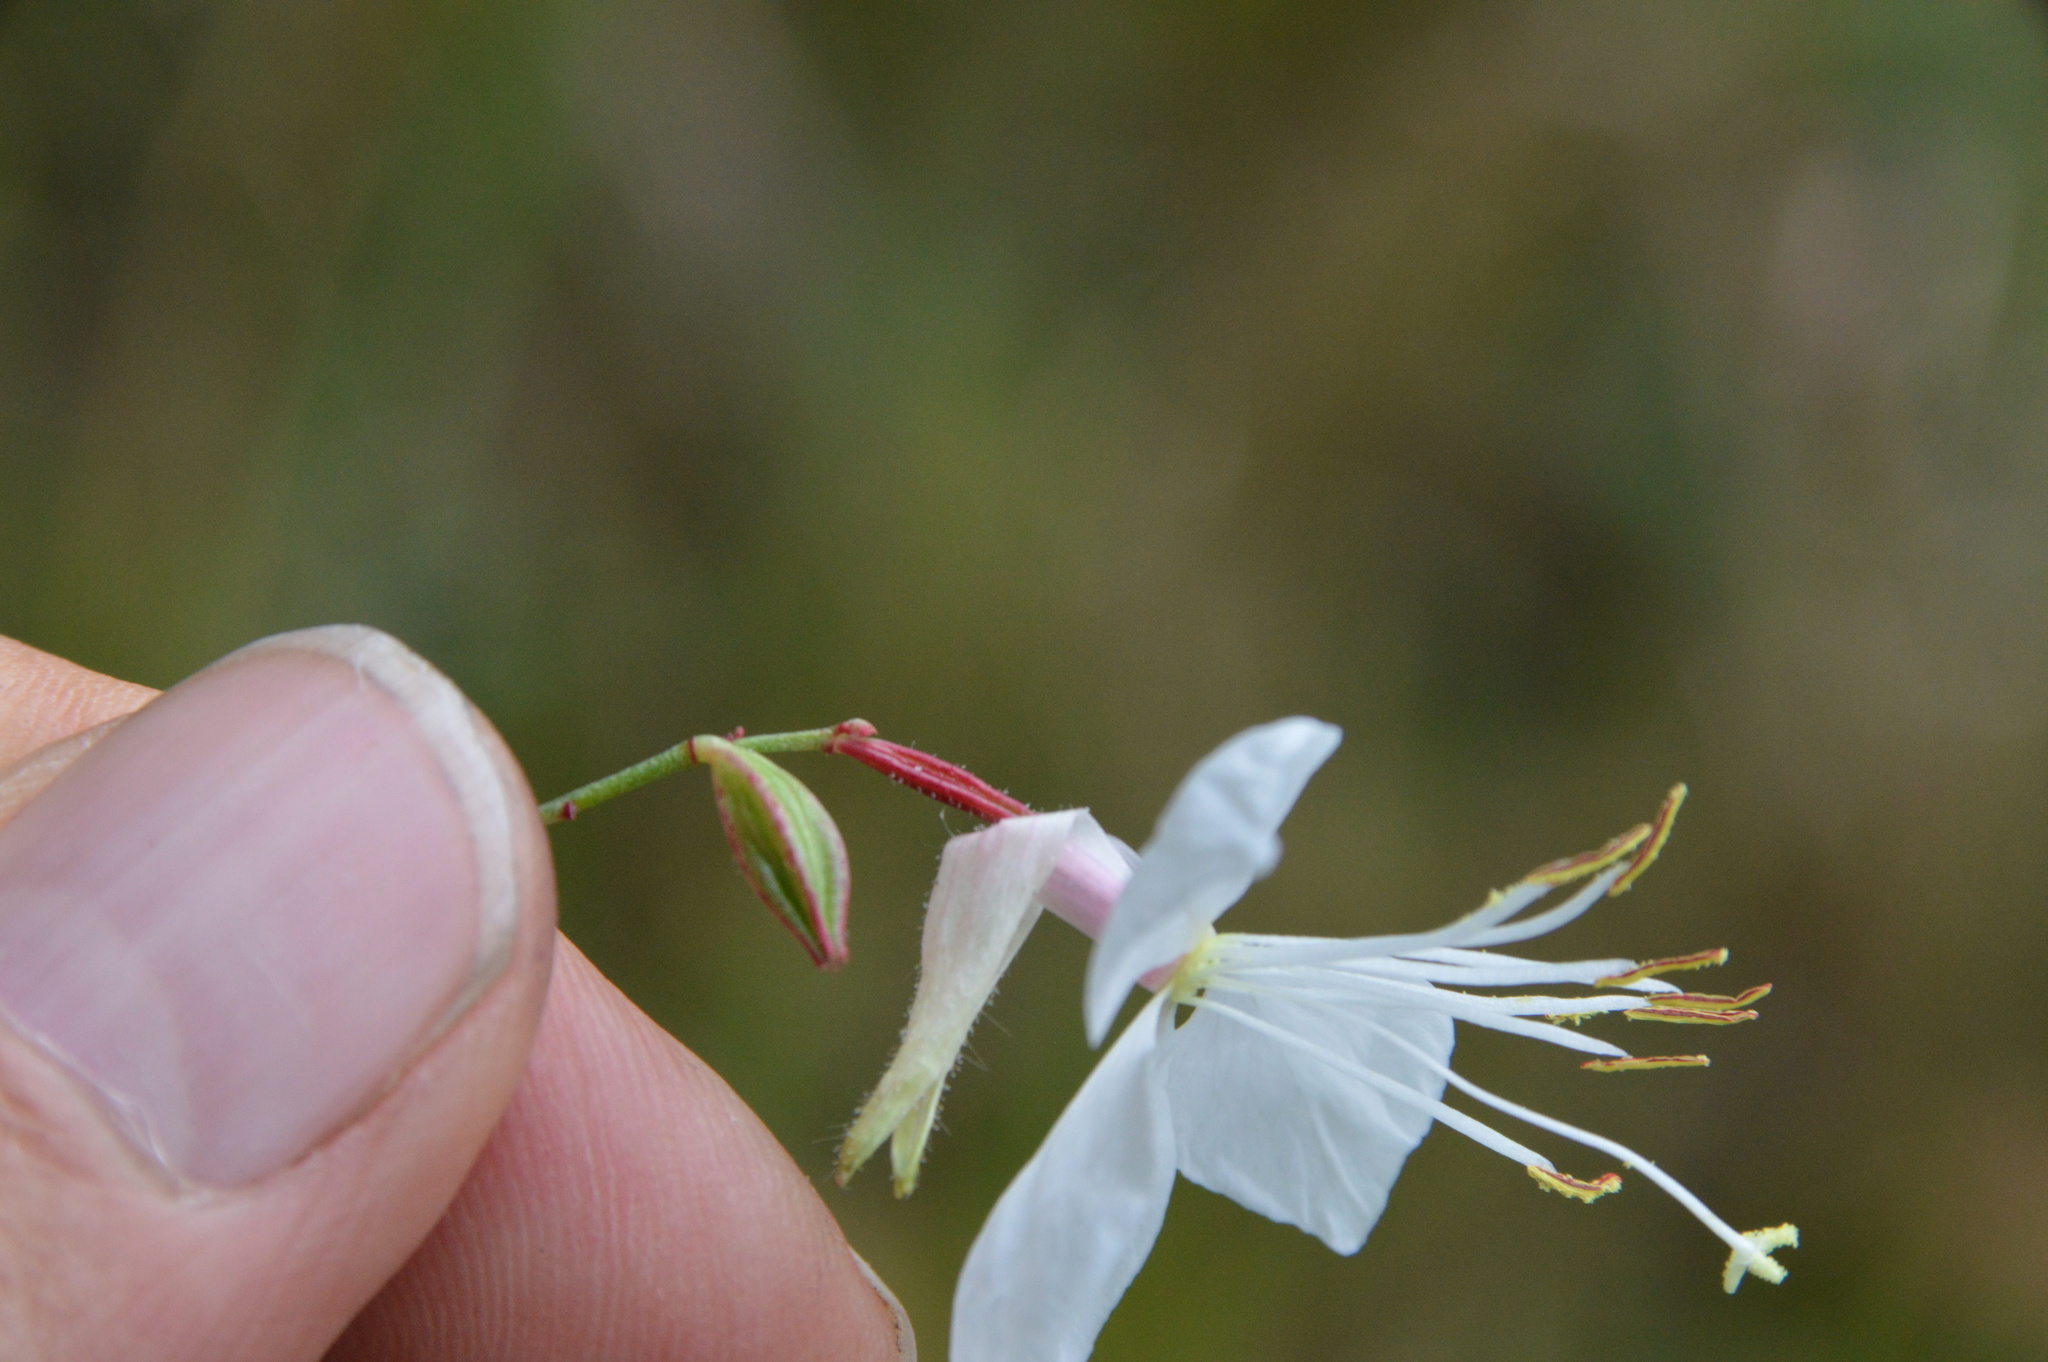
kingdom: Plantae
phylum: Tracheophyta
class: Magnoliopsida
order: Myrtales
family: Onagraceae
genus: Oenothera
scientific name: Oenothera lindheimeri
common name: Lindheimer's beeblossom
